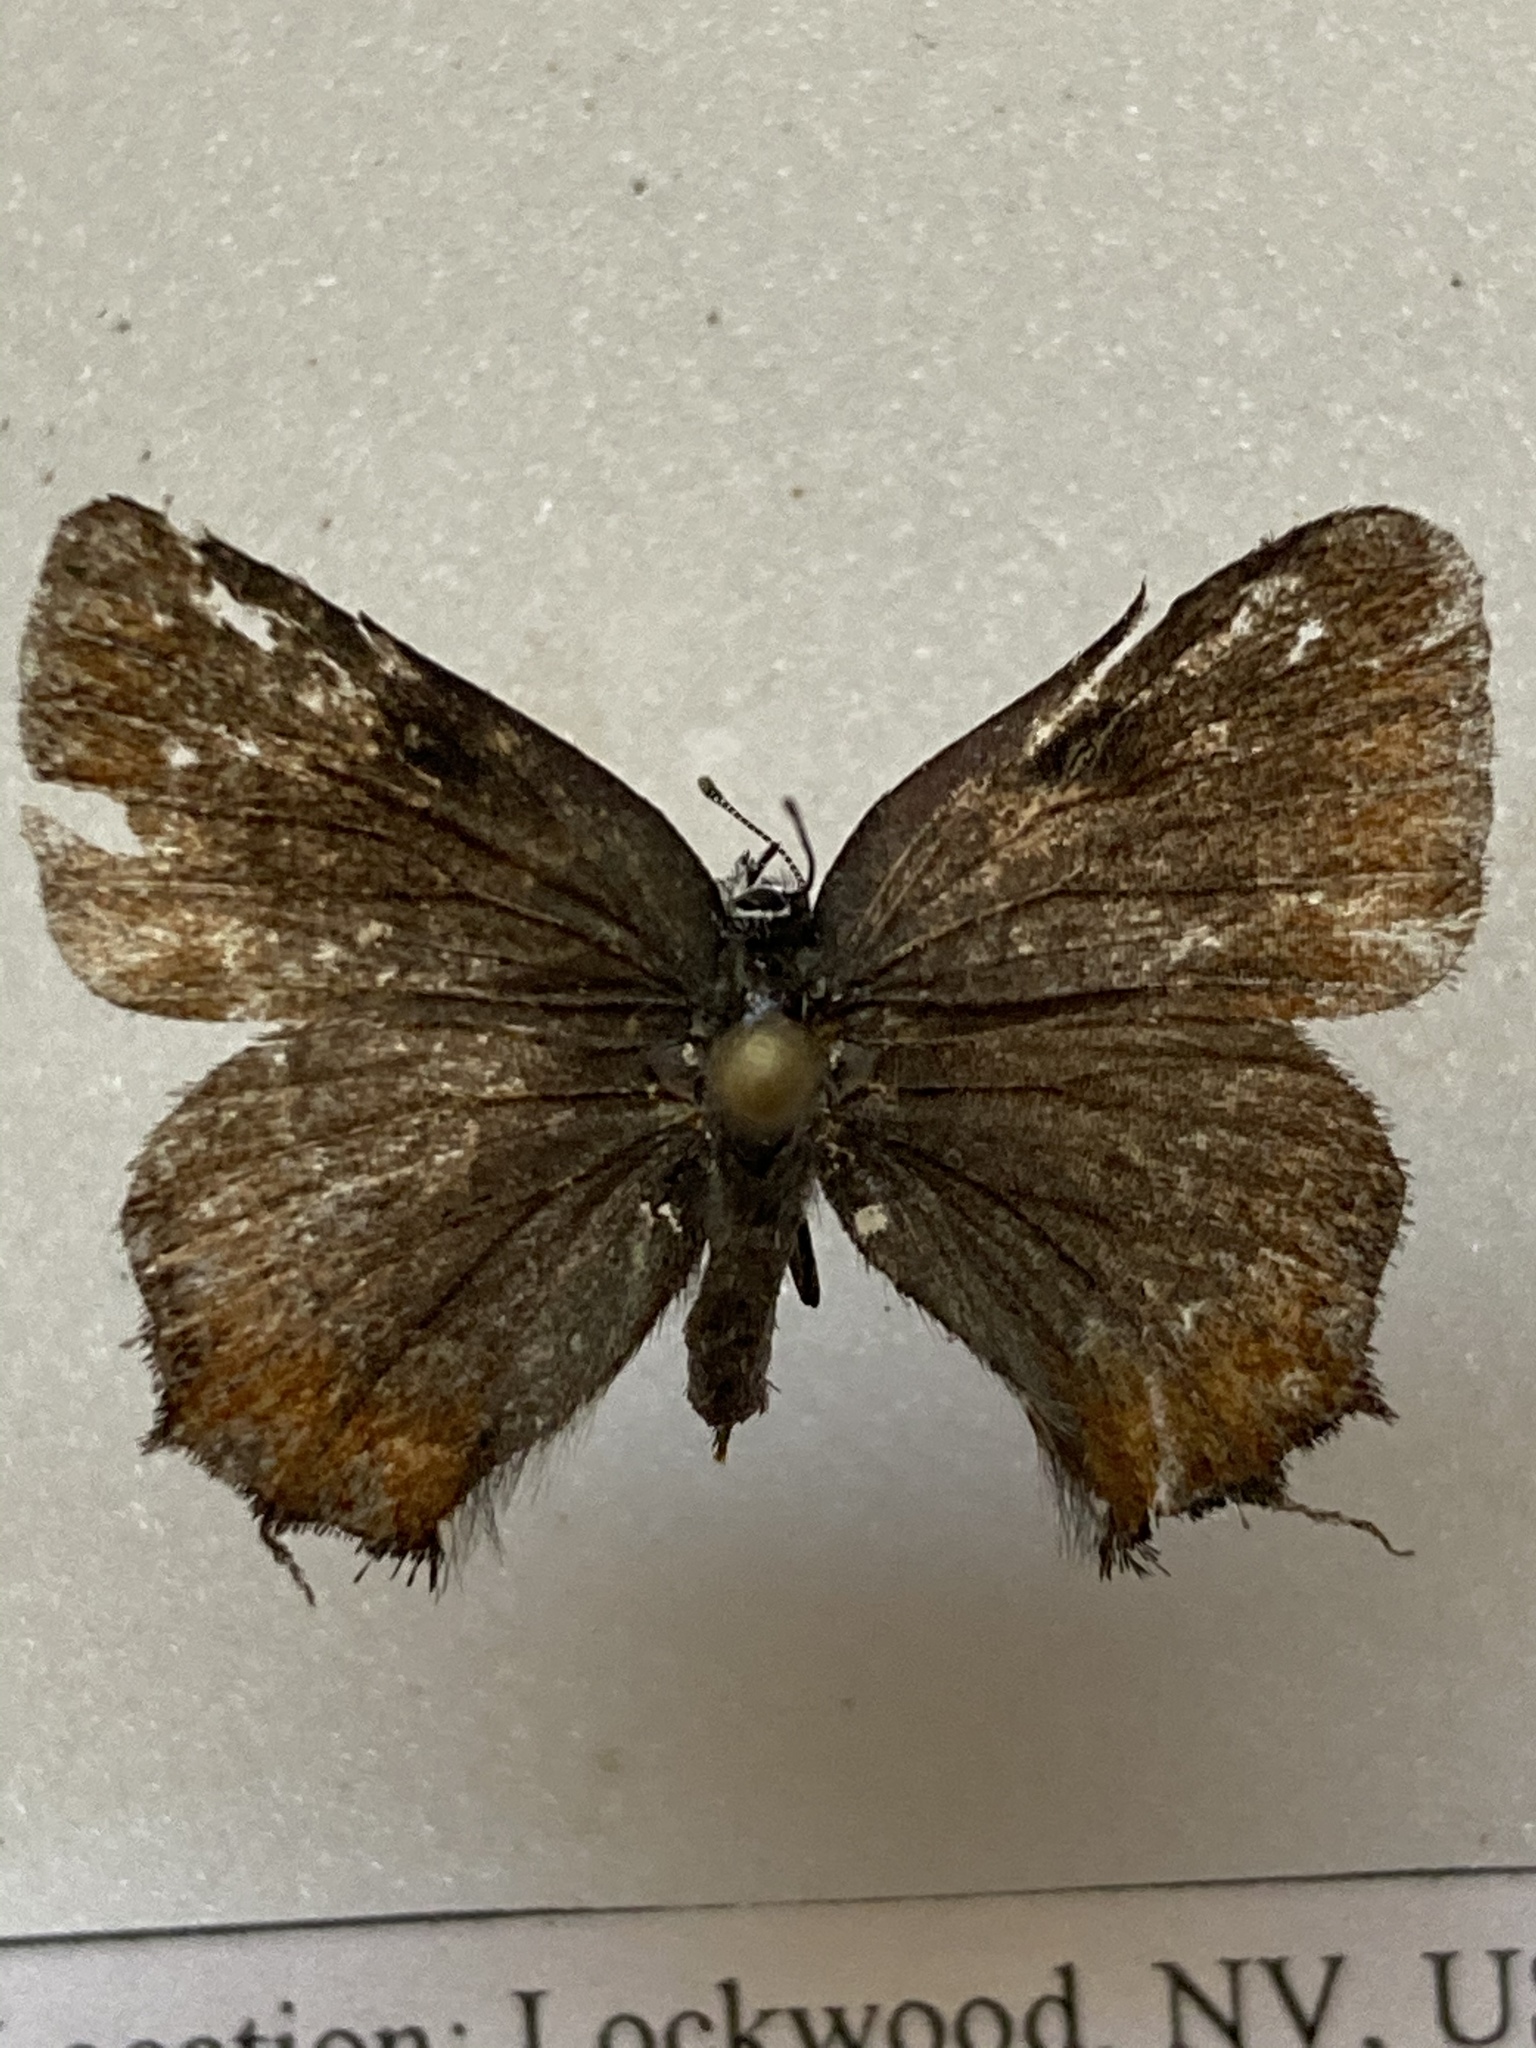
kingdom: Animalia
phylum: Arthropoda
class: Insecta
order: Lepidoptera
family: Lycaenidae
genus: Mitoura
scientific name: Mitoura gryneus
